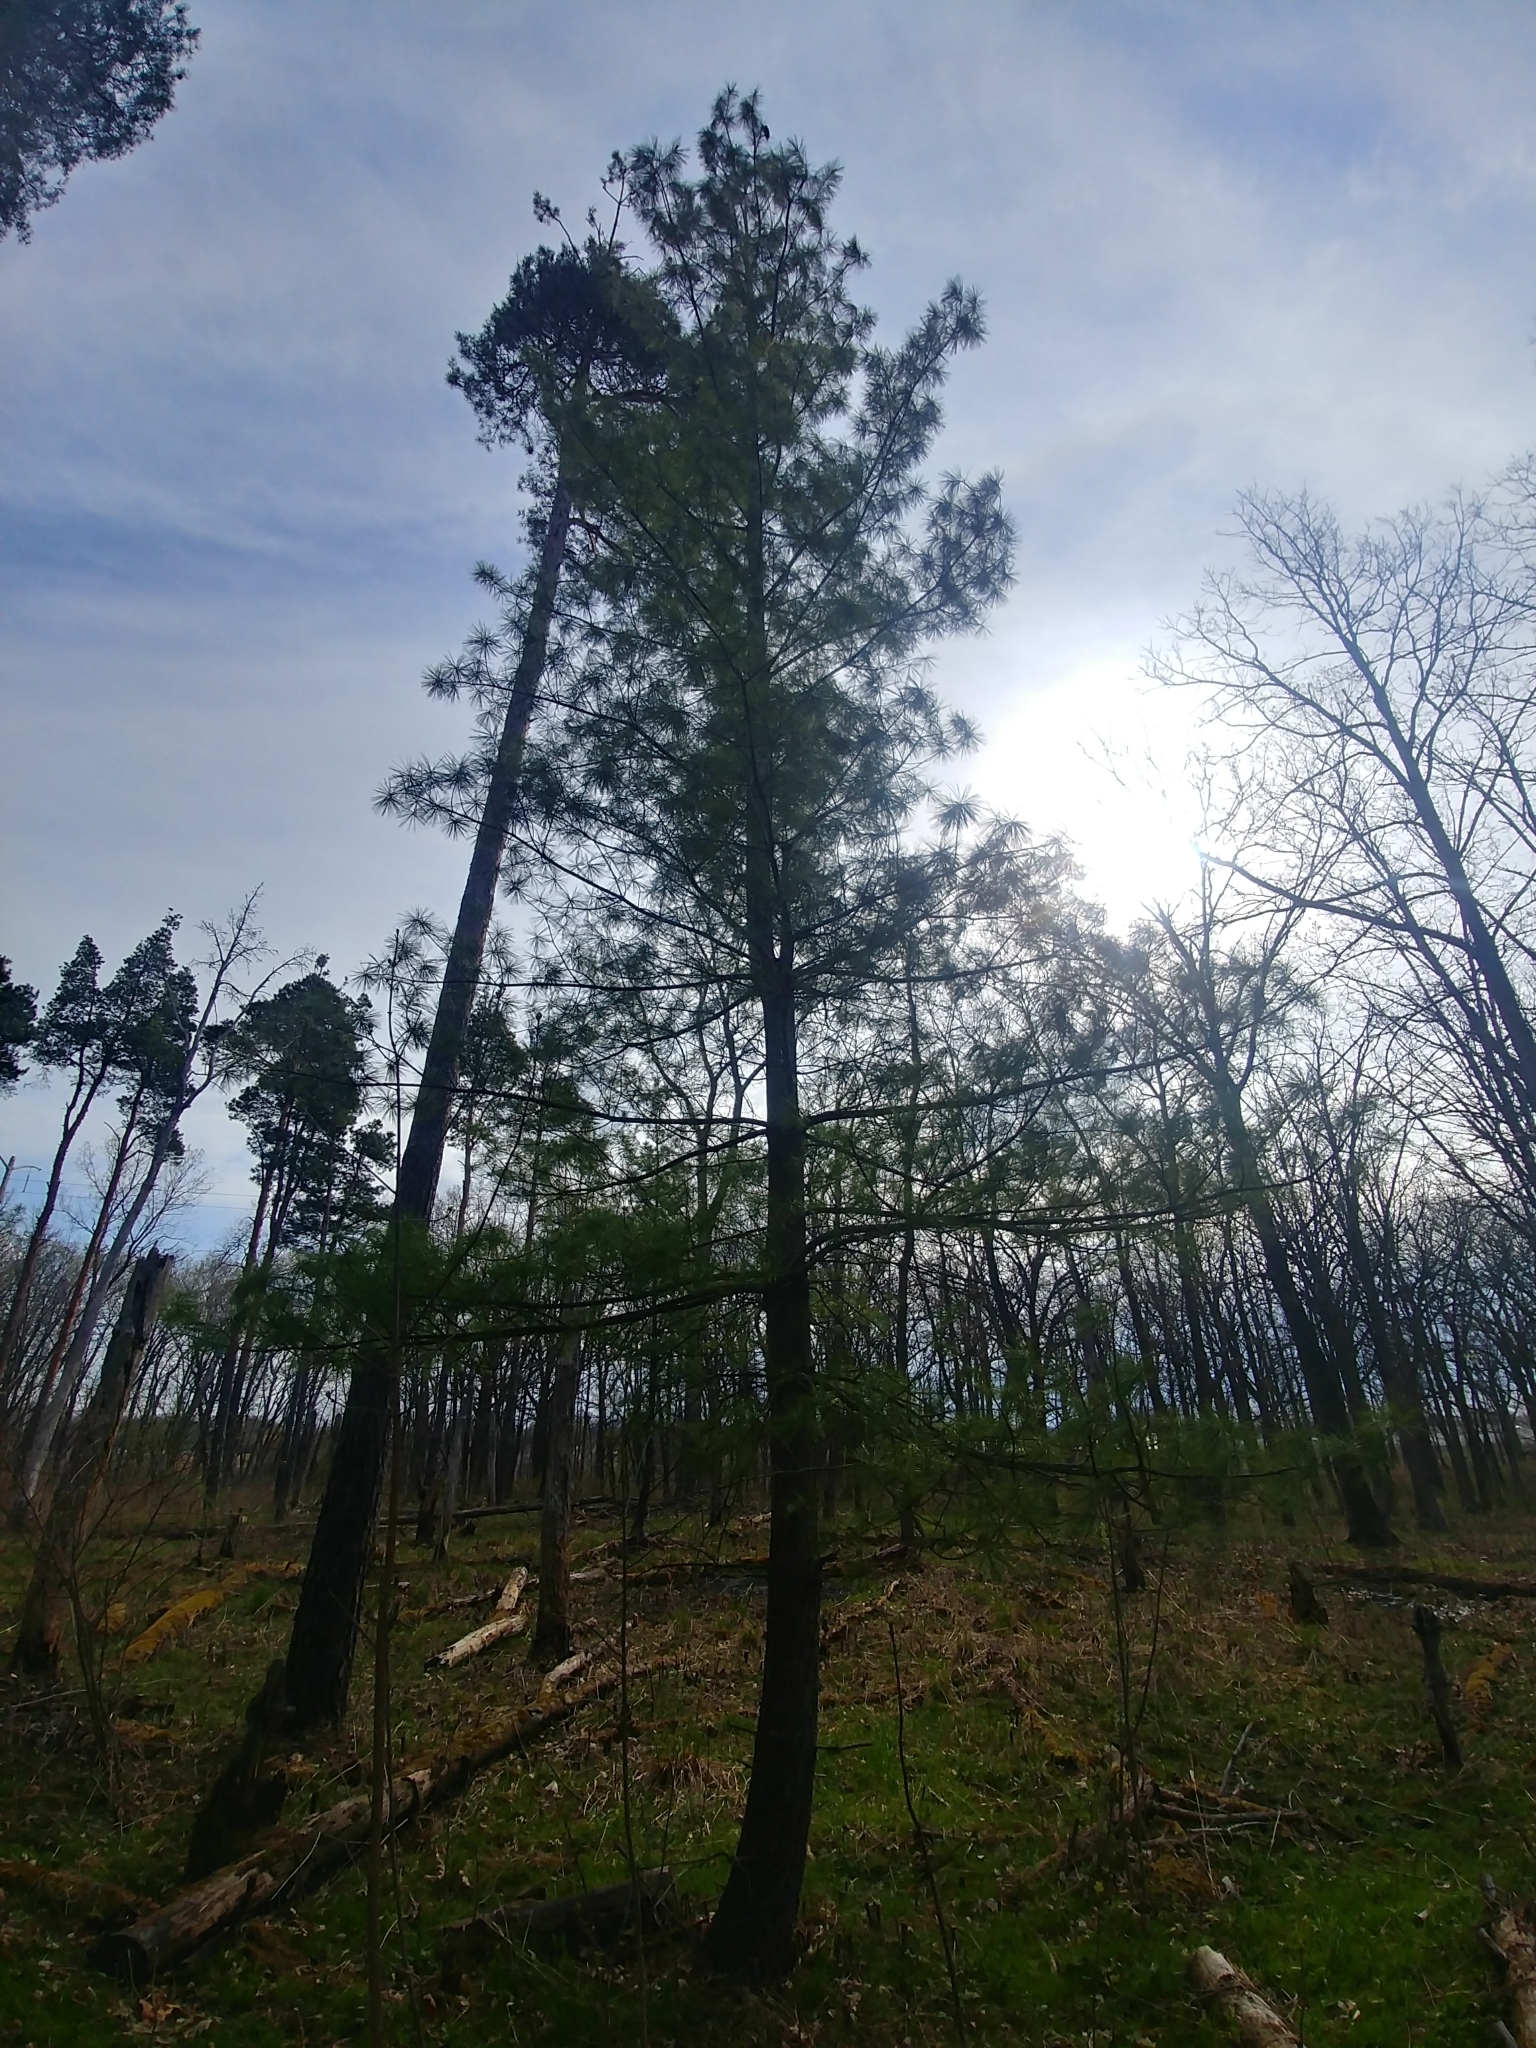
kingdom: Plantae
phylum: Tracheophyta
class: Pinopsida
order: Pinales
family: Pinaceae
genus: Pinus
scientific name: Pinus strobus
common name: Weymouth pine
